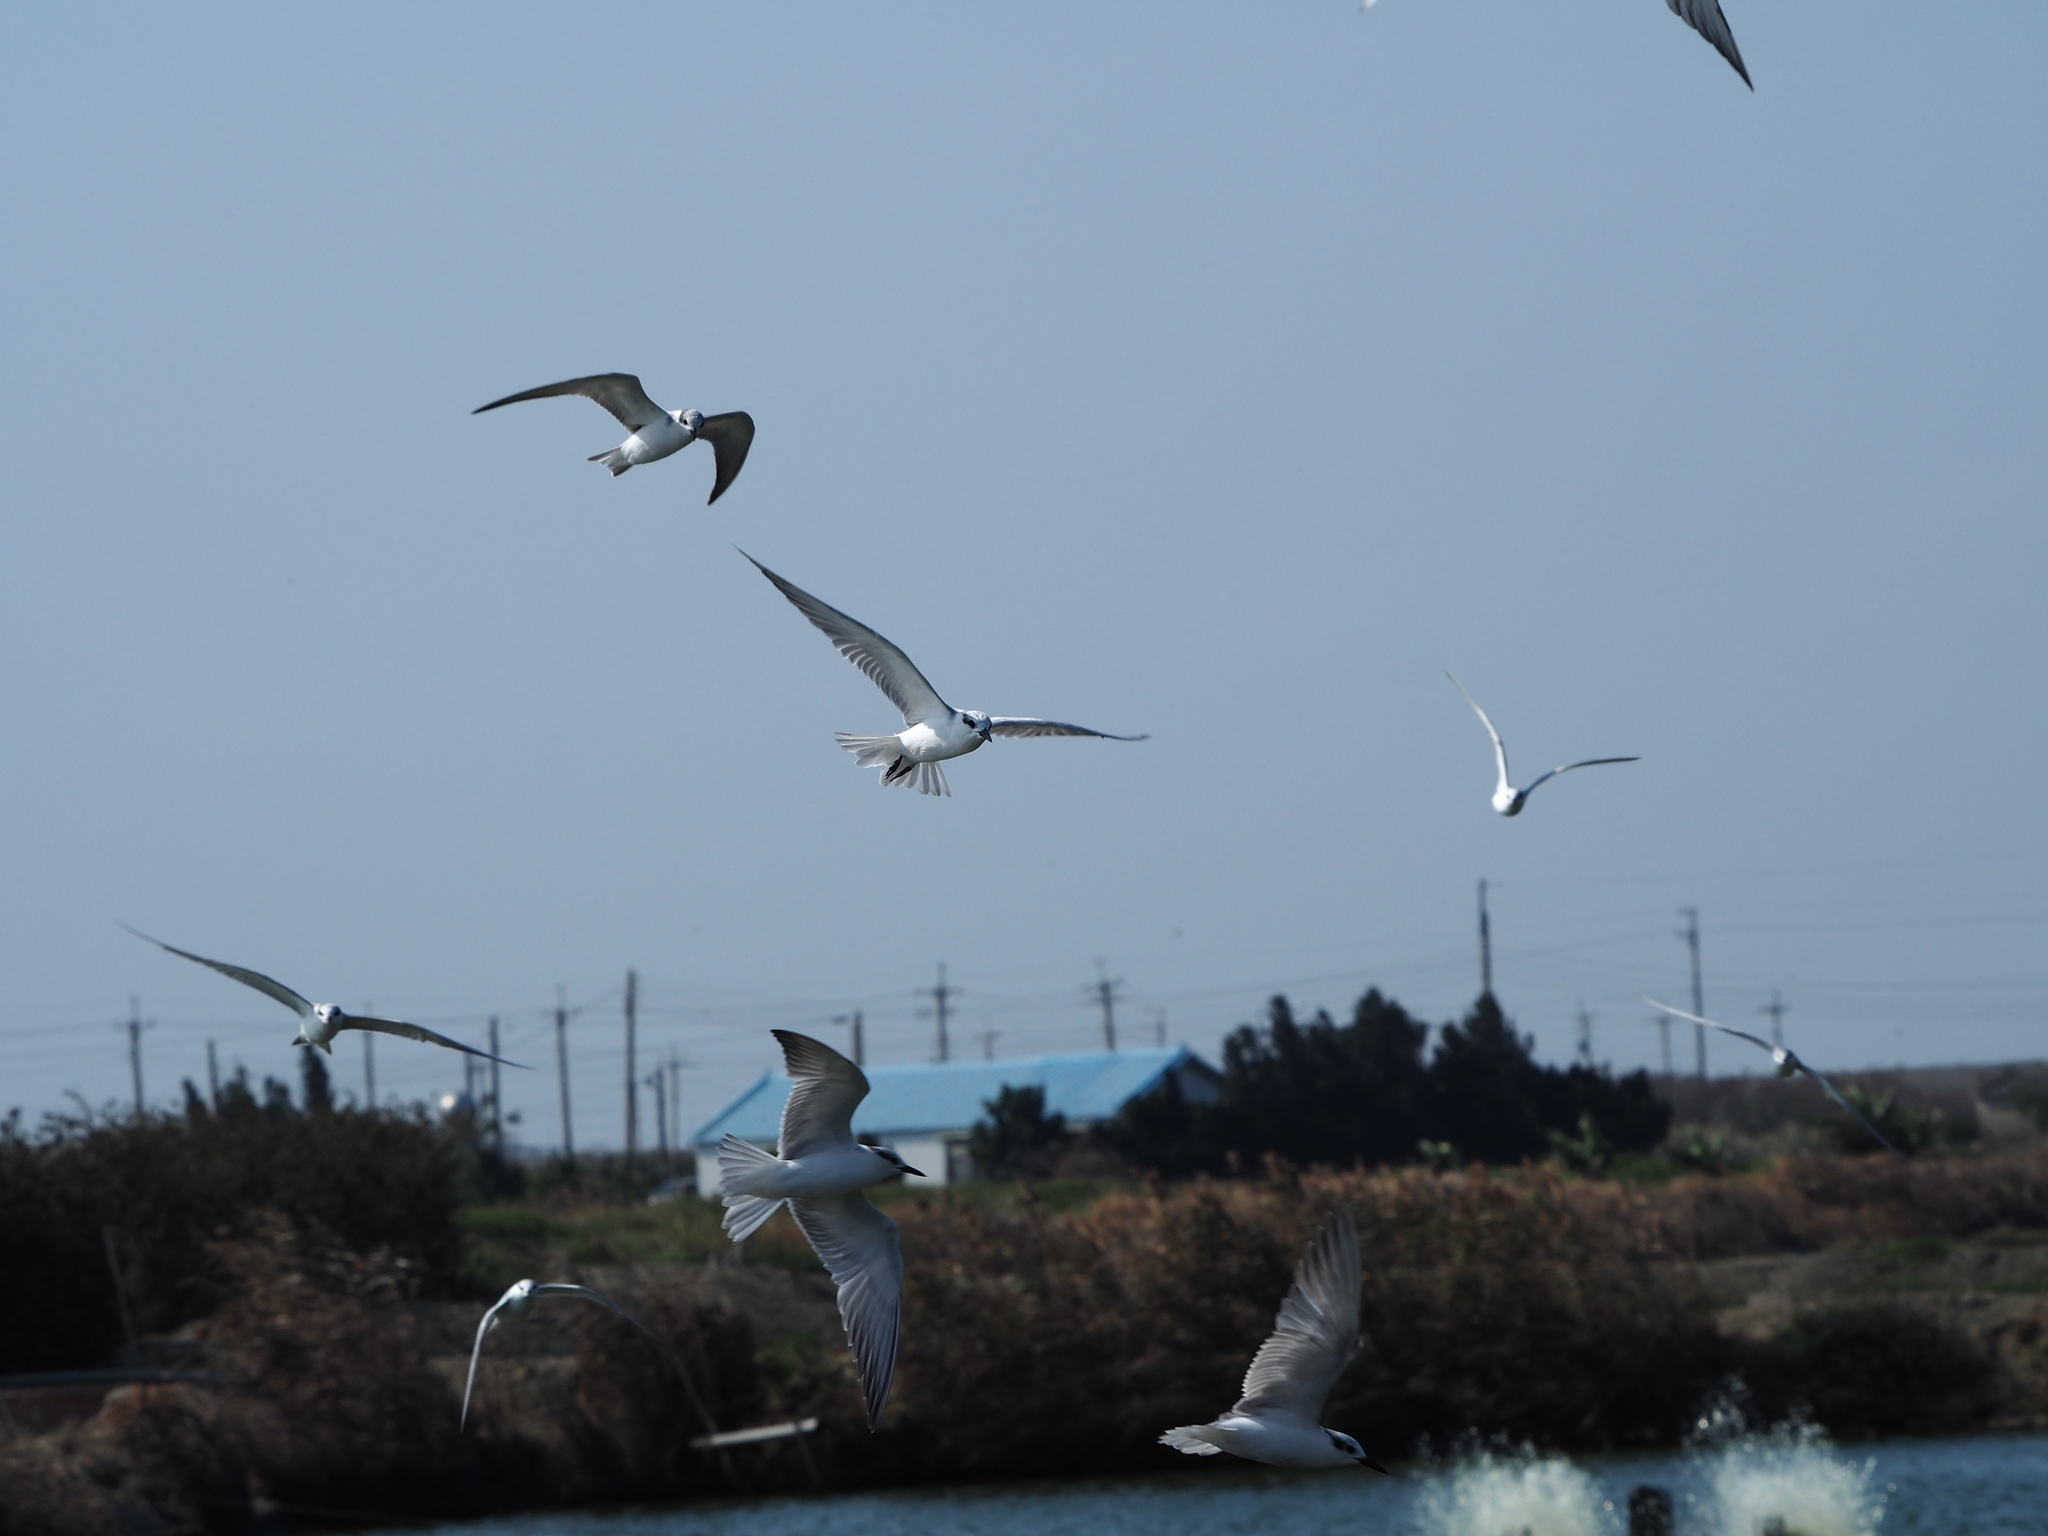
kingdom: Animalia
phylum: Chordata
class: Aves
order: Charadriiformes
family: Laridae
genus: Chlidonias
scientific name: Chlidonias hybrida
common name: Whiskered tern
